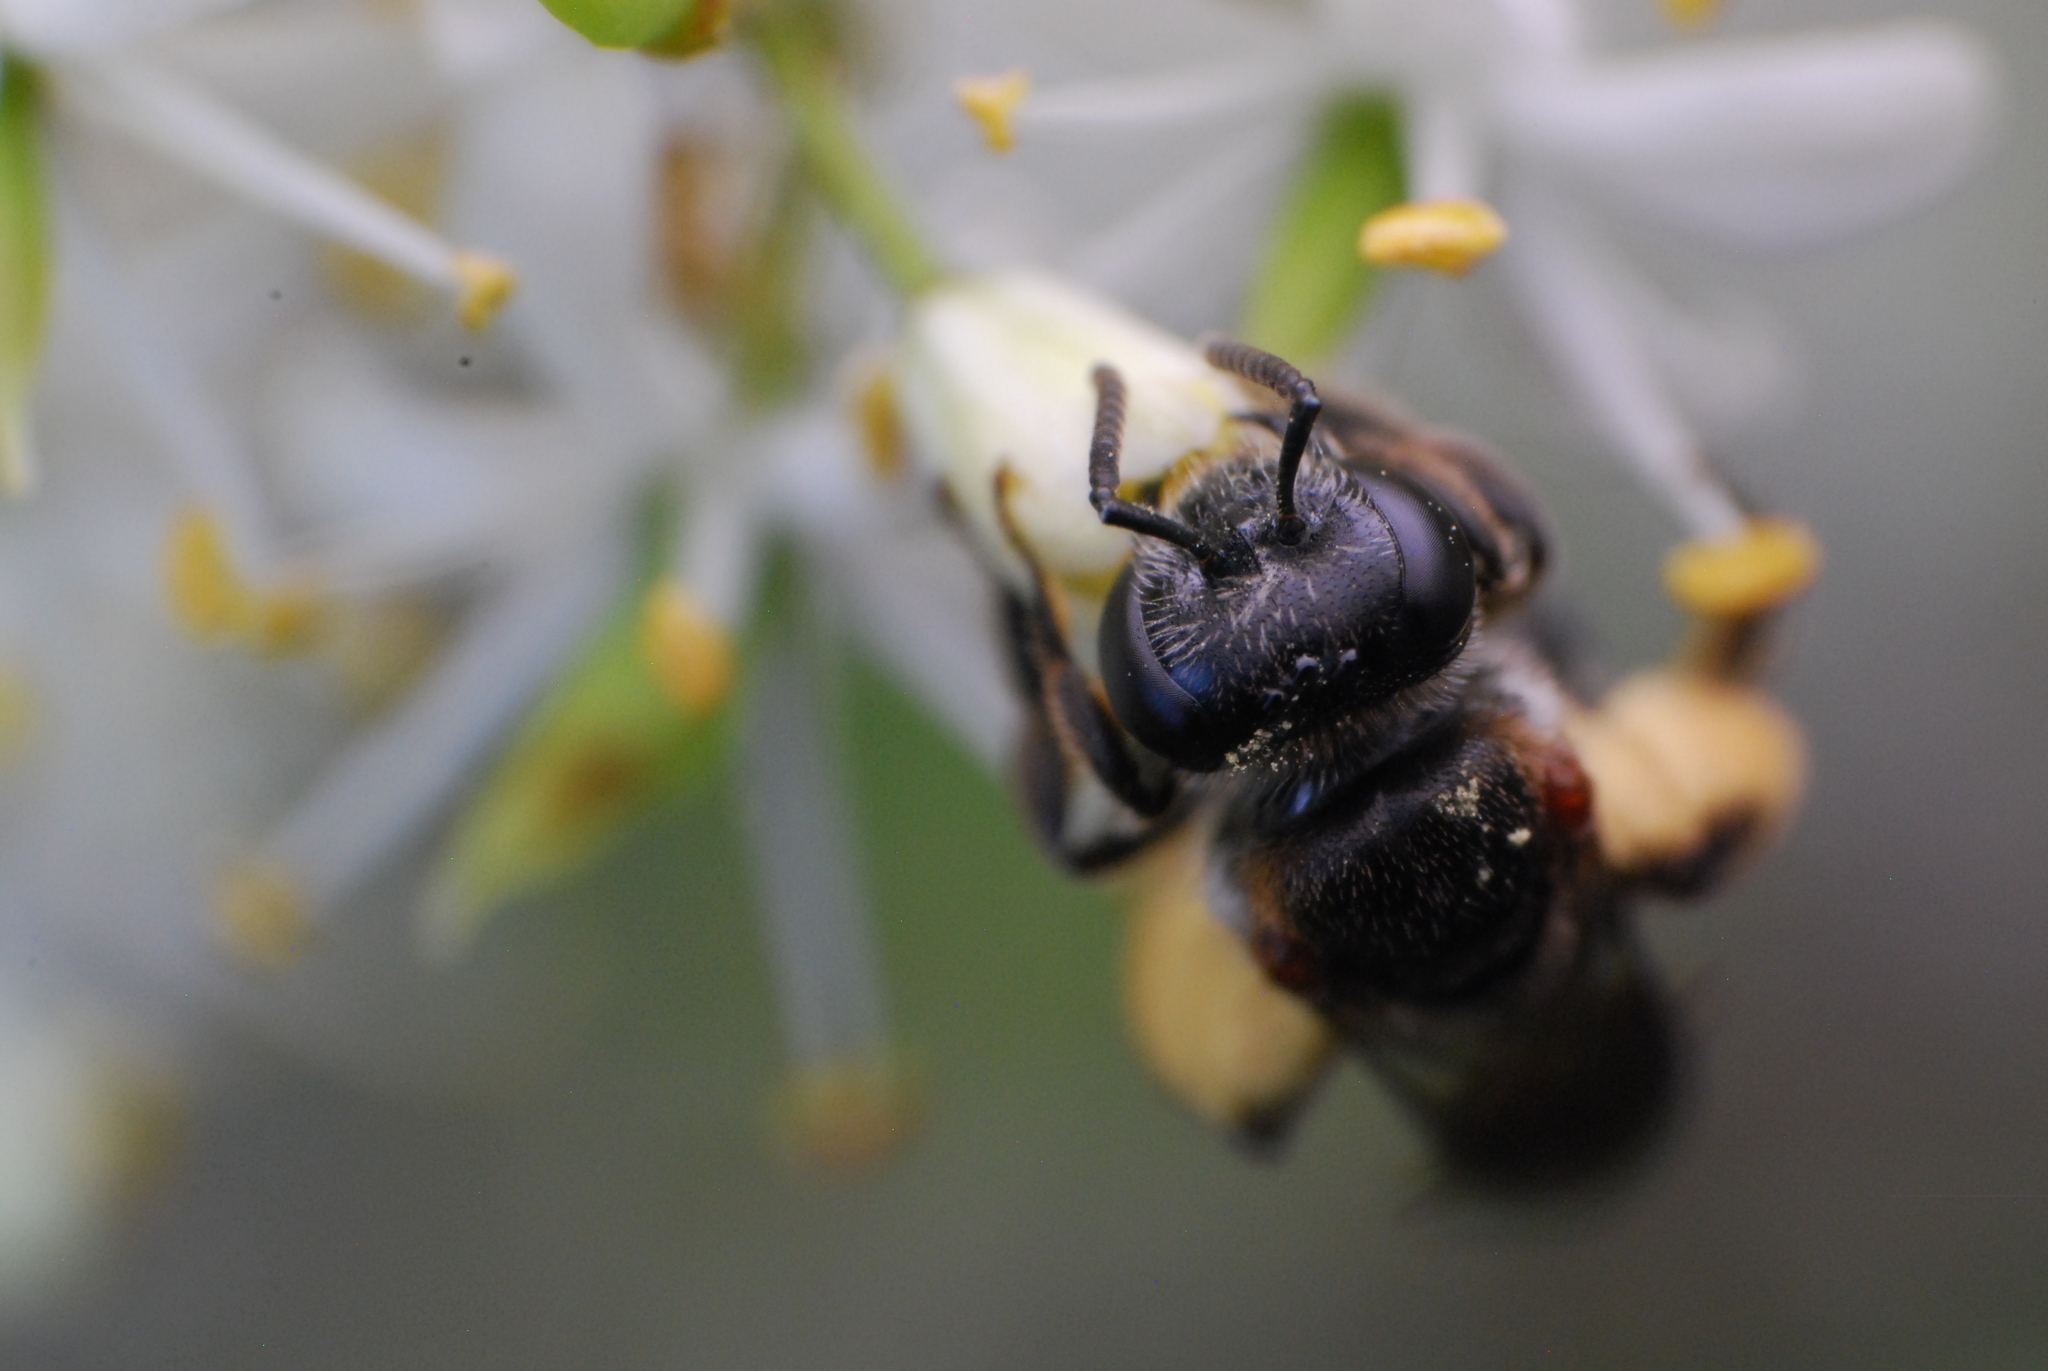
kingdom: Animalia
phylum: Arthropoda
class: Insecta
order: Hymenoptera
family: Colletidae
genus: Leioproctus
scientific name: Leioproctus launcestonensis
